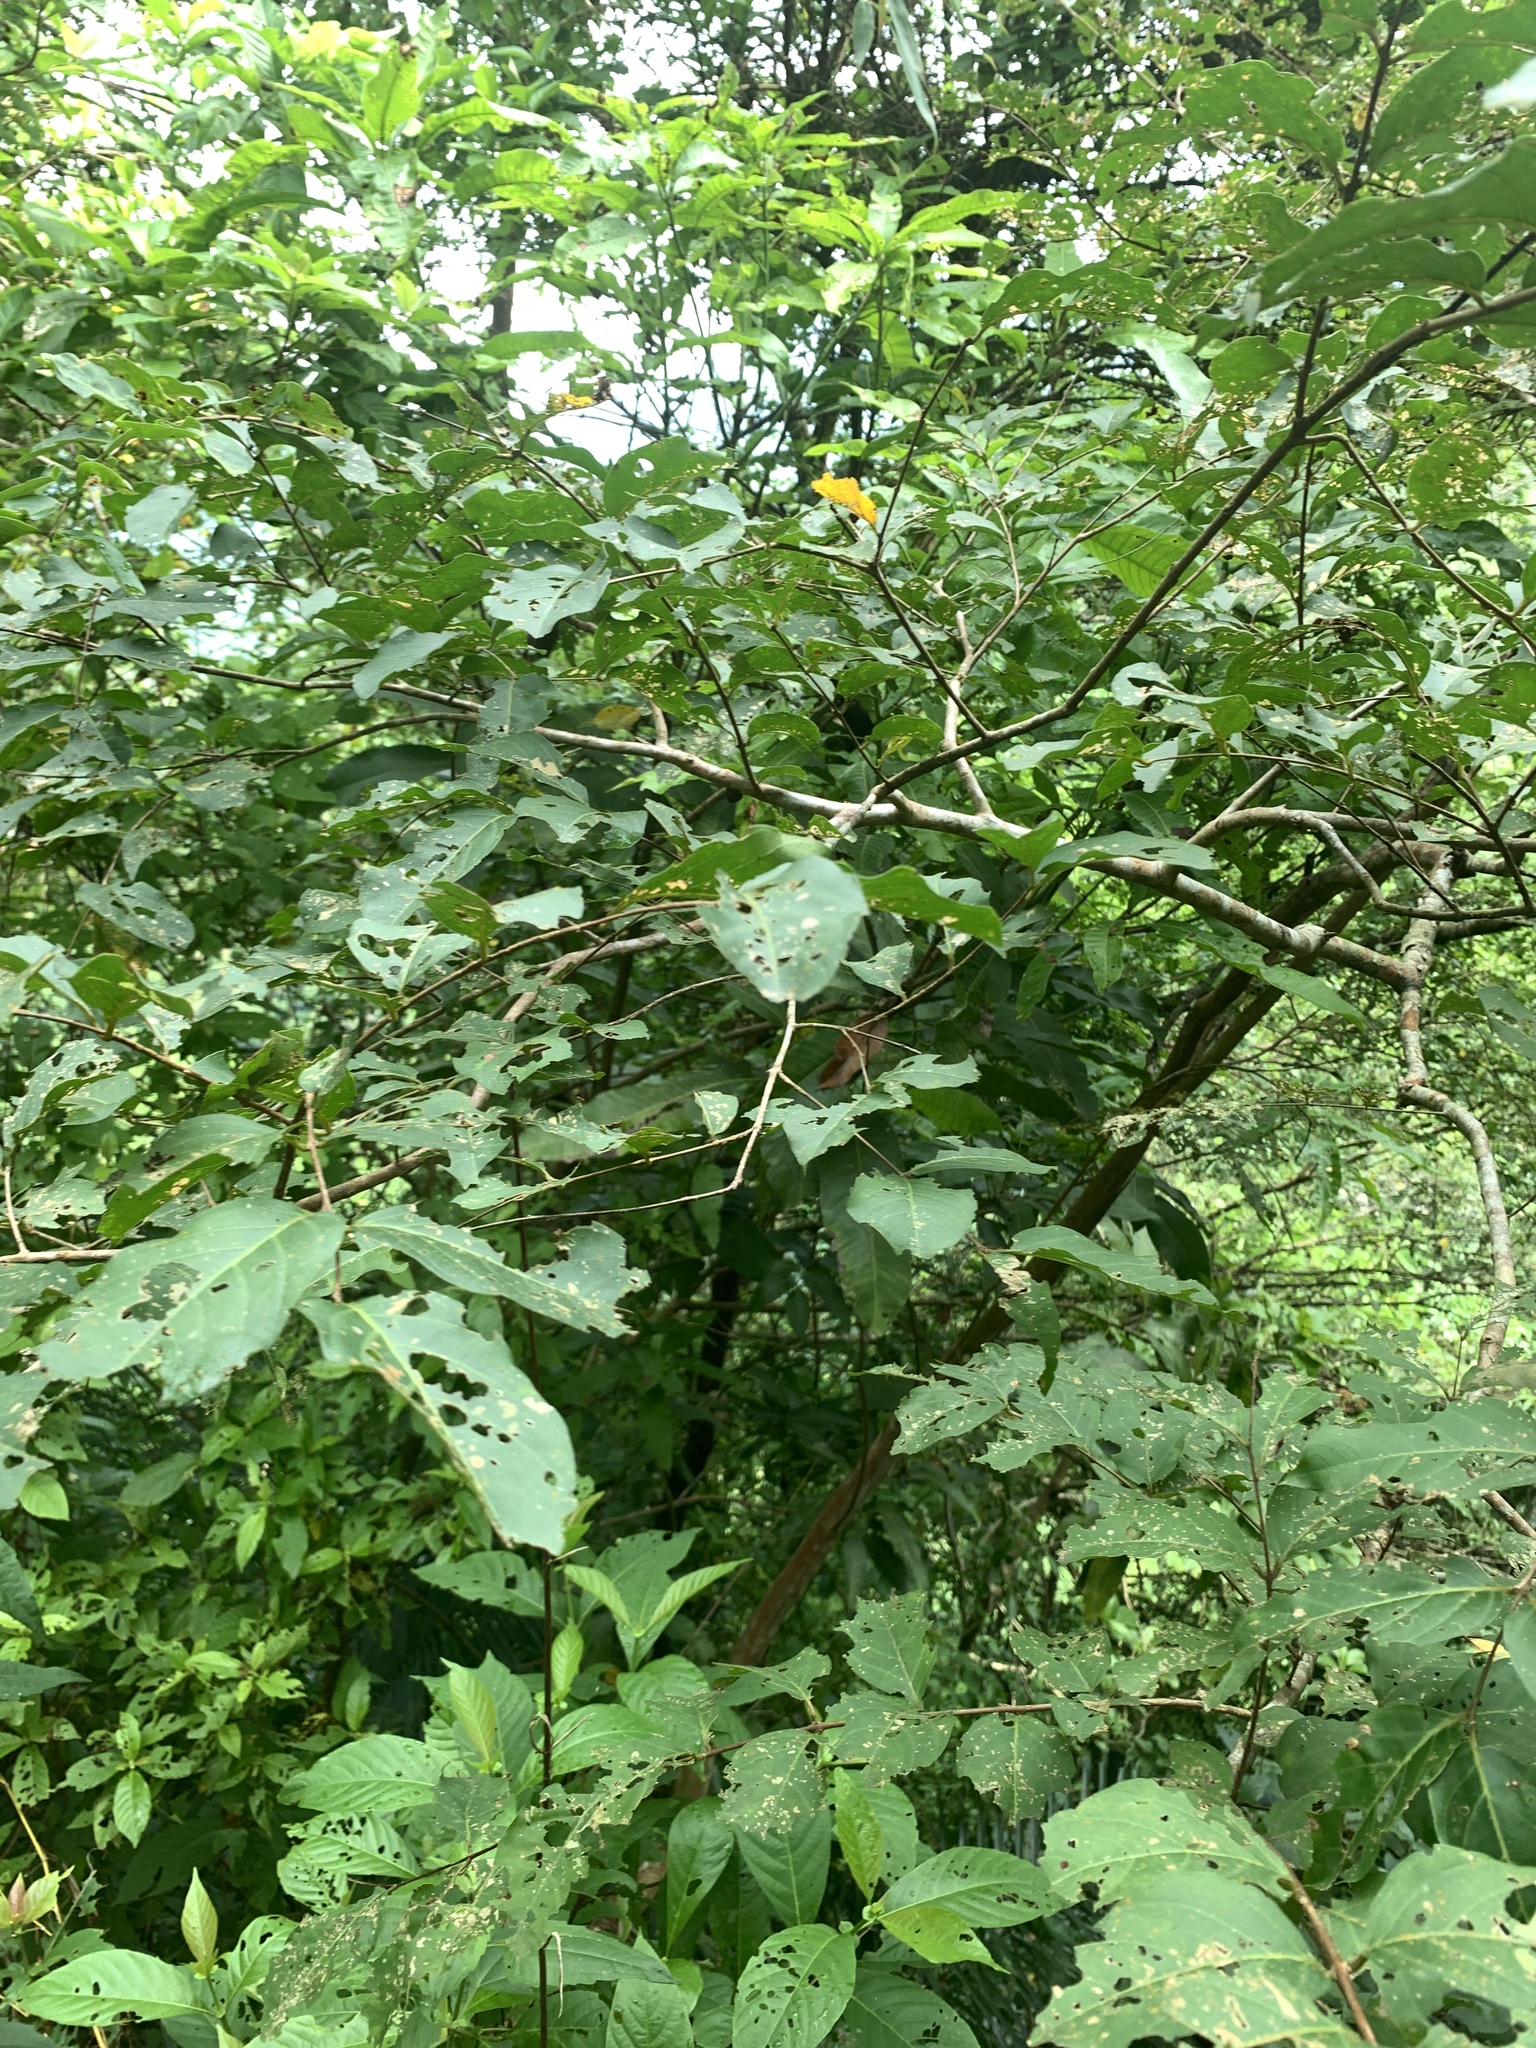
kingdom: Plantae
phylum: Tracheophyta
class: Magnoliopsida
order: Myrtales
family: Lythraceae
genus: Lagerstroemia
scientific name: Lagerstroemia subcostata
